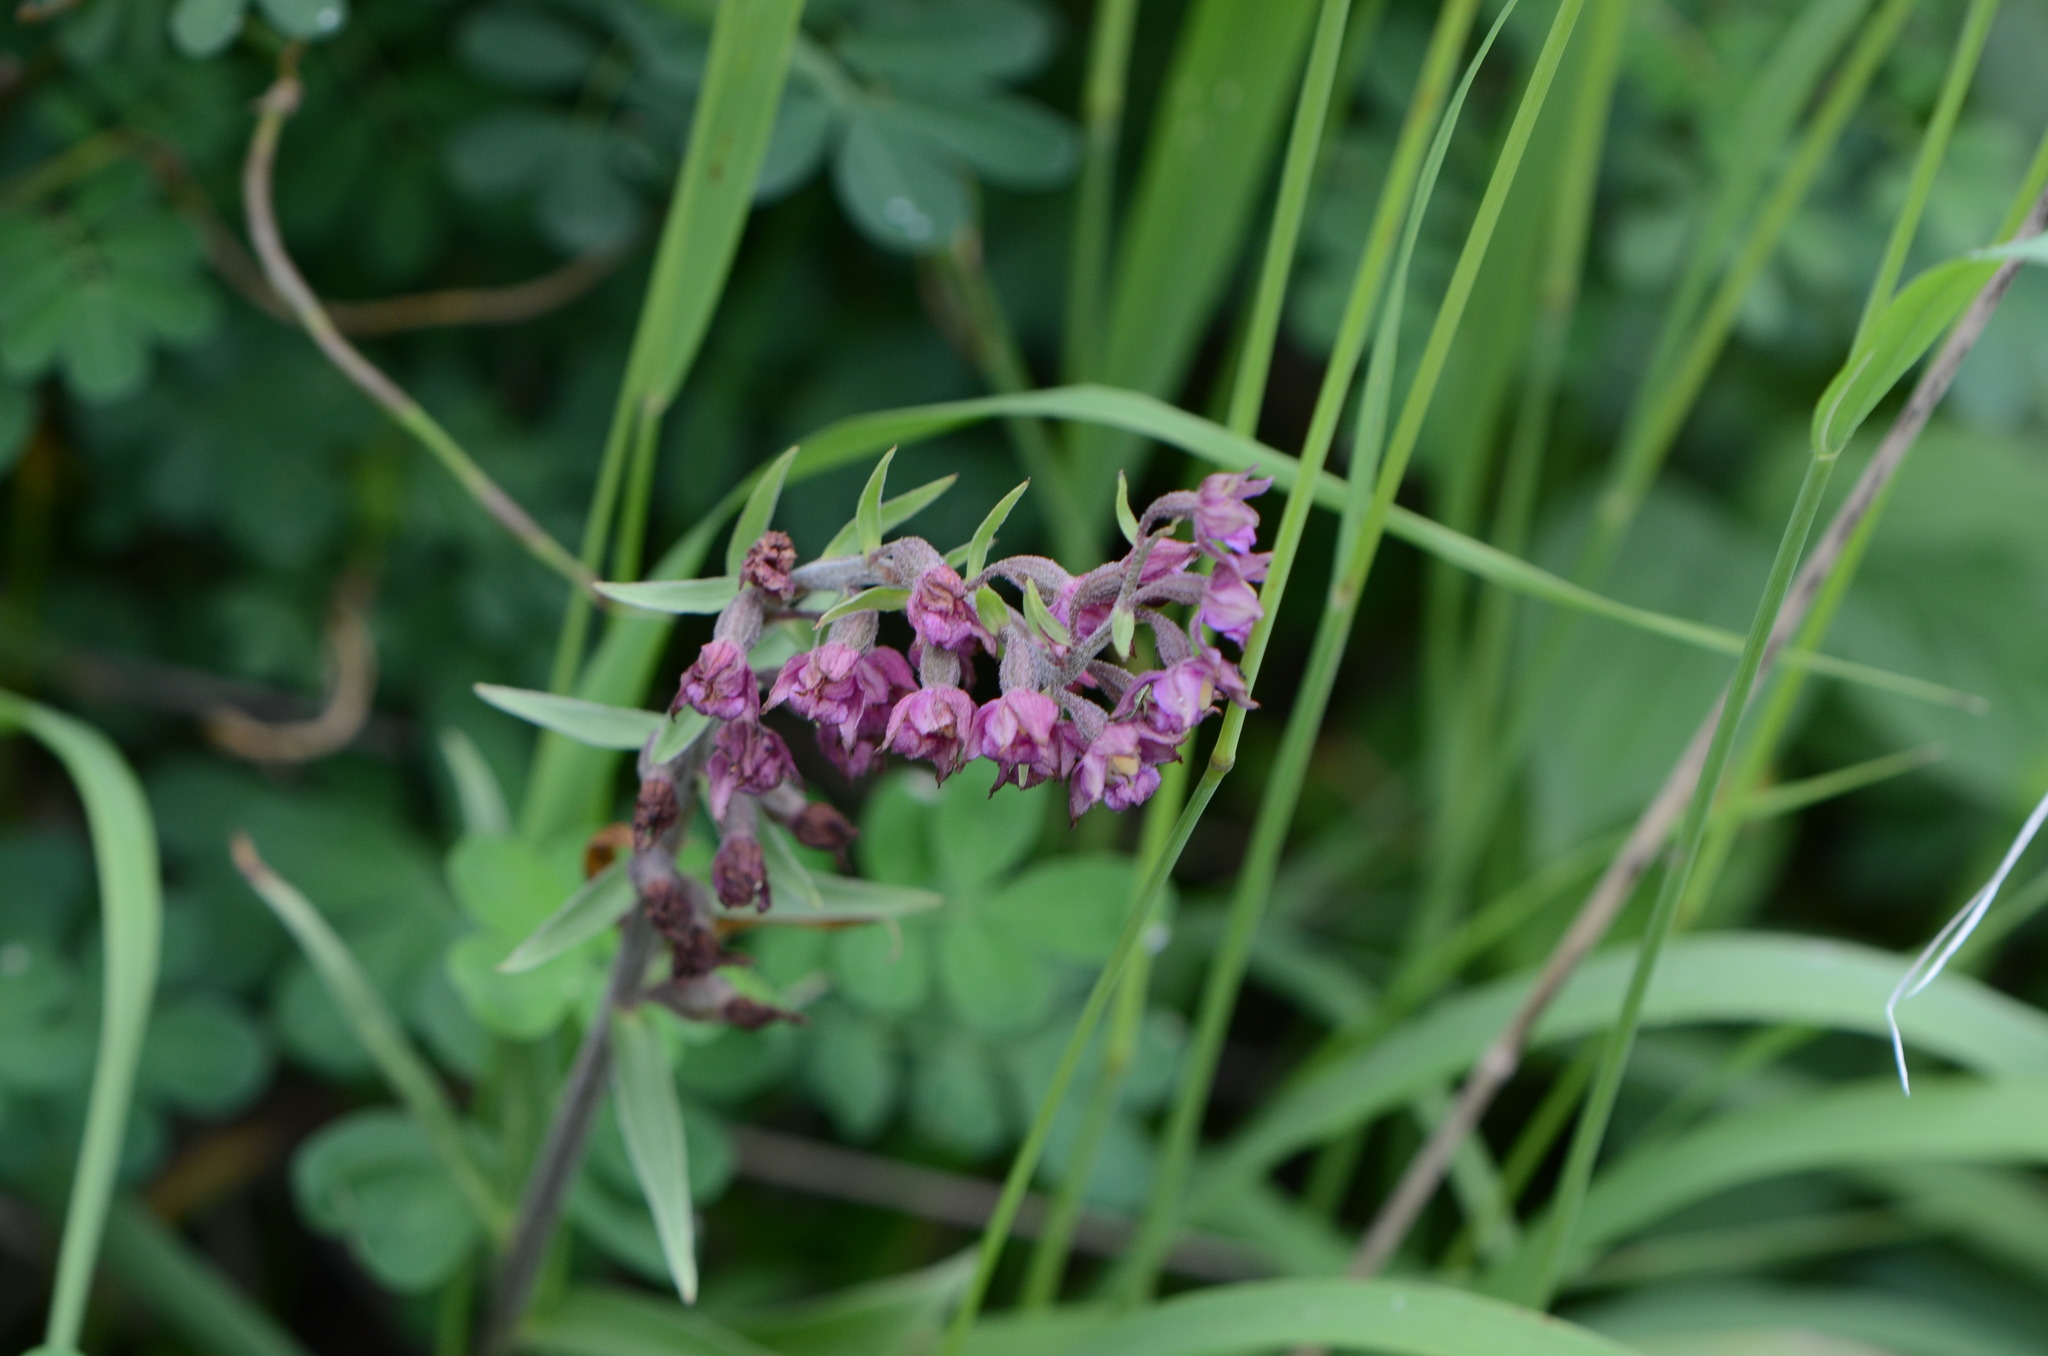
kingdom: Plantae
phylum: Tracheophyta
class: Liliopsida
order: Asparagales
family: Orchidaceae
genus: Epipactis
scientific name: Epipactis atrorubens
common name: Dark-red helleborine
